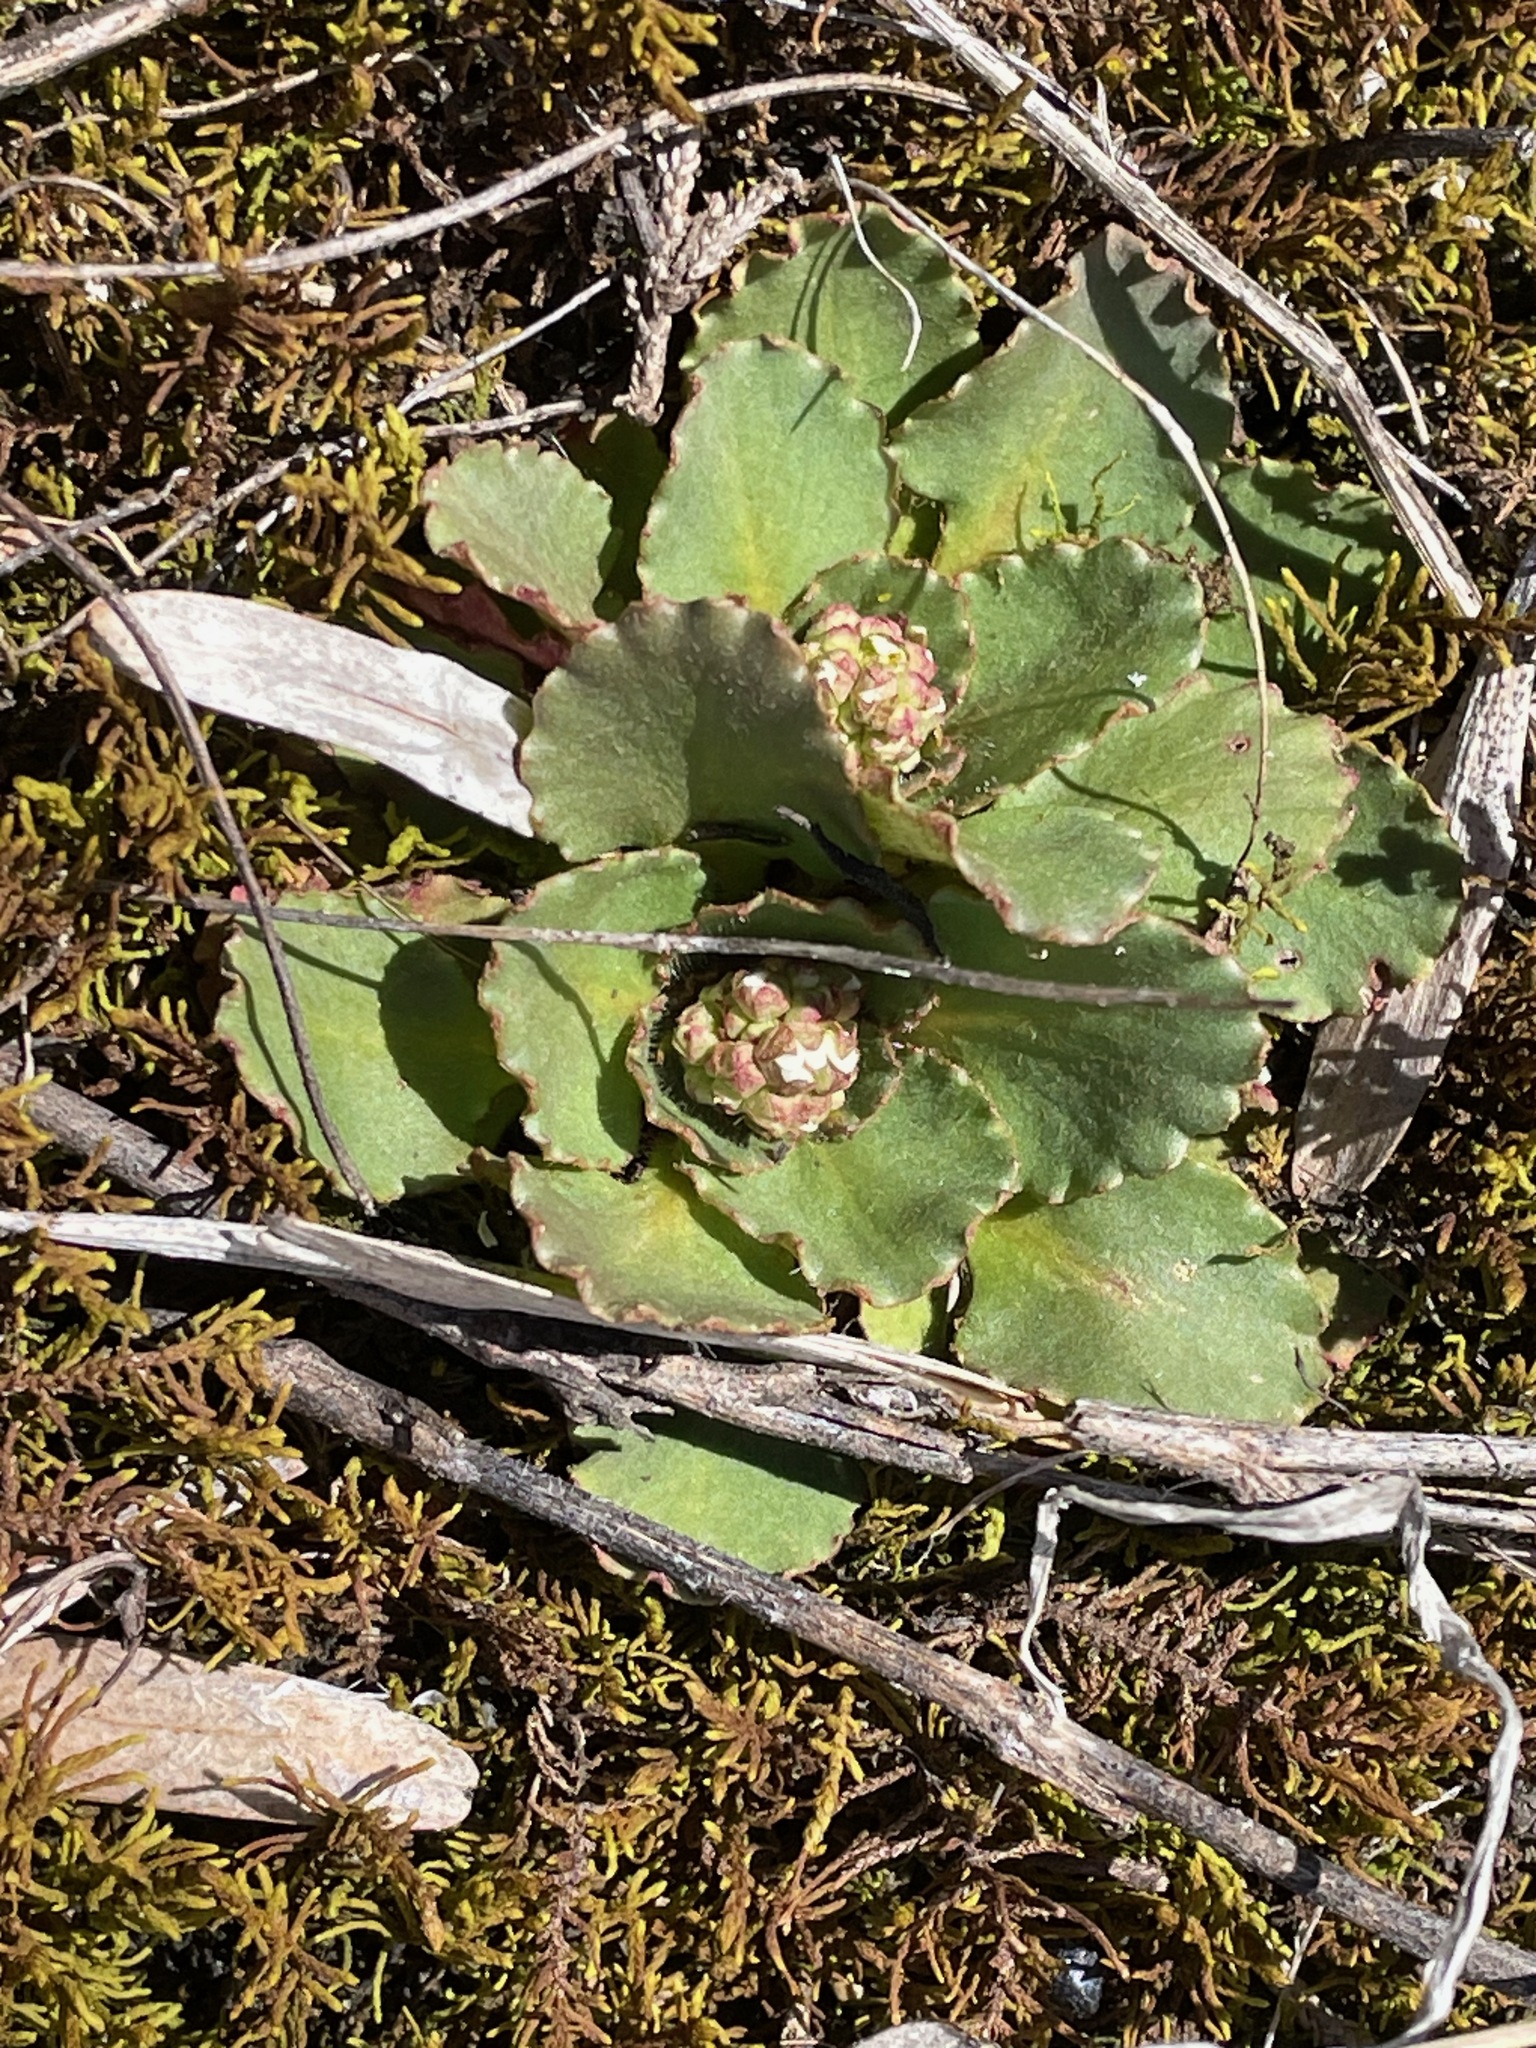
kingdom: Plantae
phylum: Tracheophyta
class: Magnoliopsida
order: Saxifragales
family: Saxifragaceae
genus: Micranthes
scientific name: Micranthes virginiensis
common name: Early saxifrage
